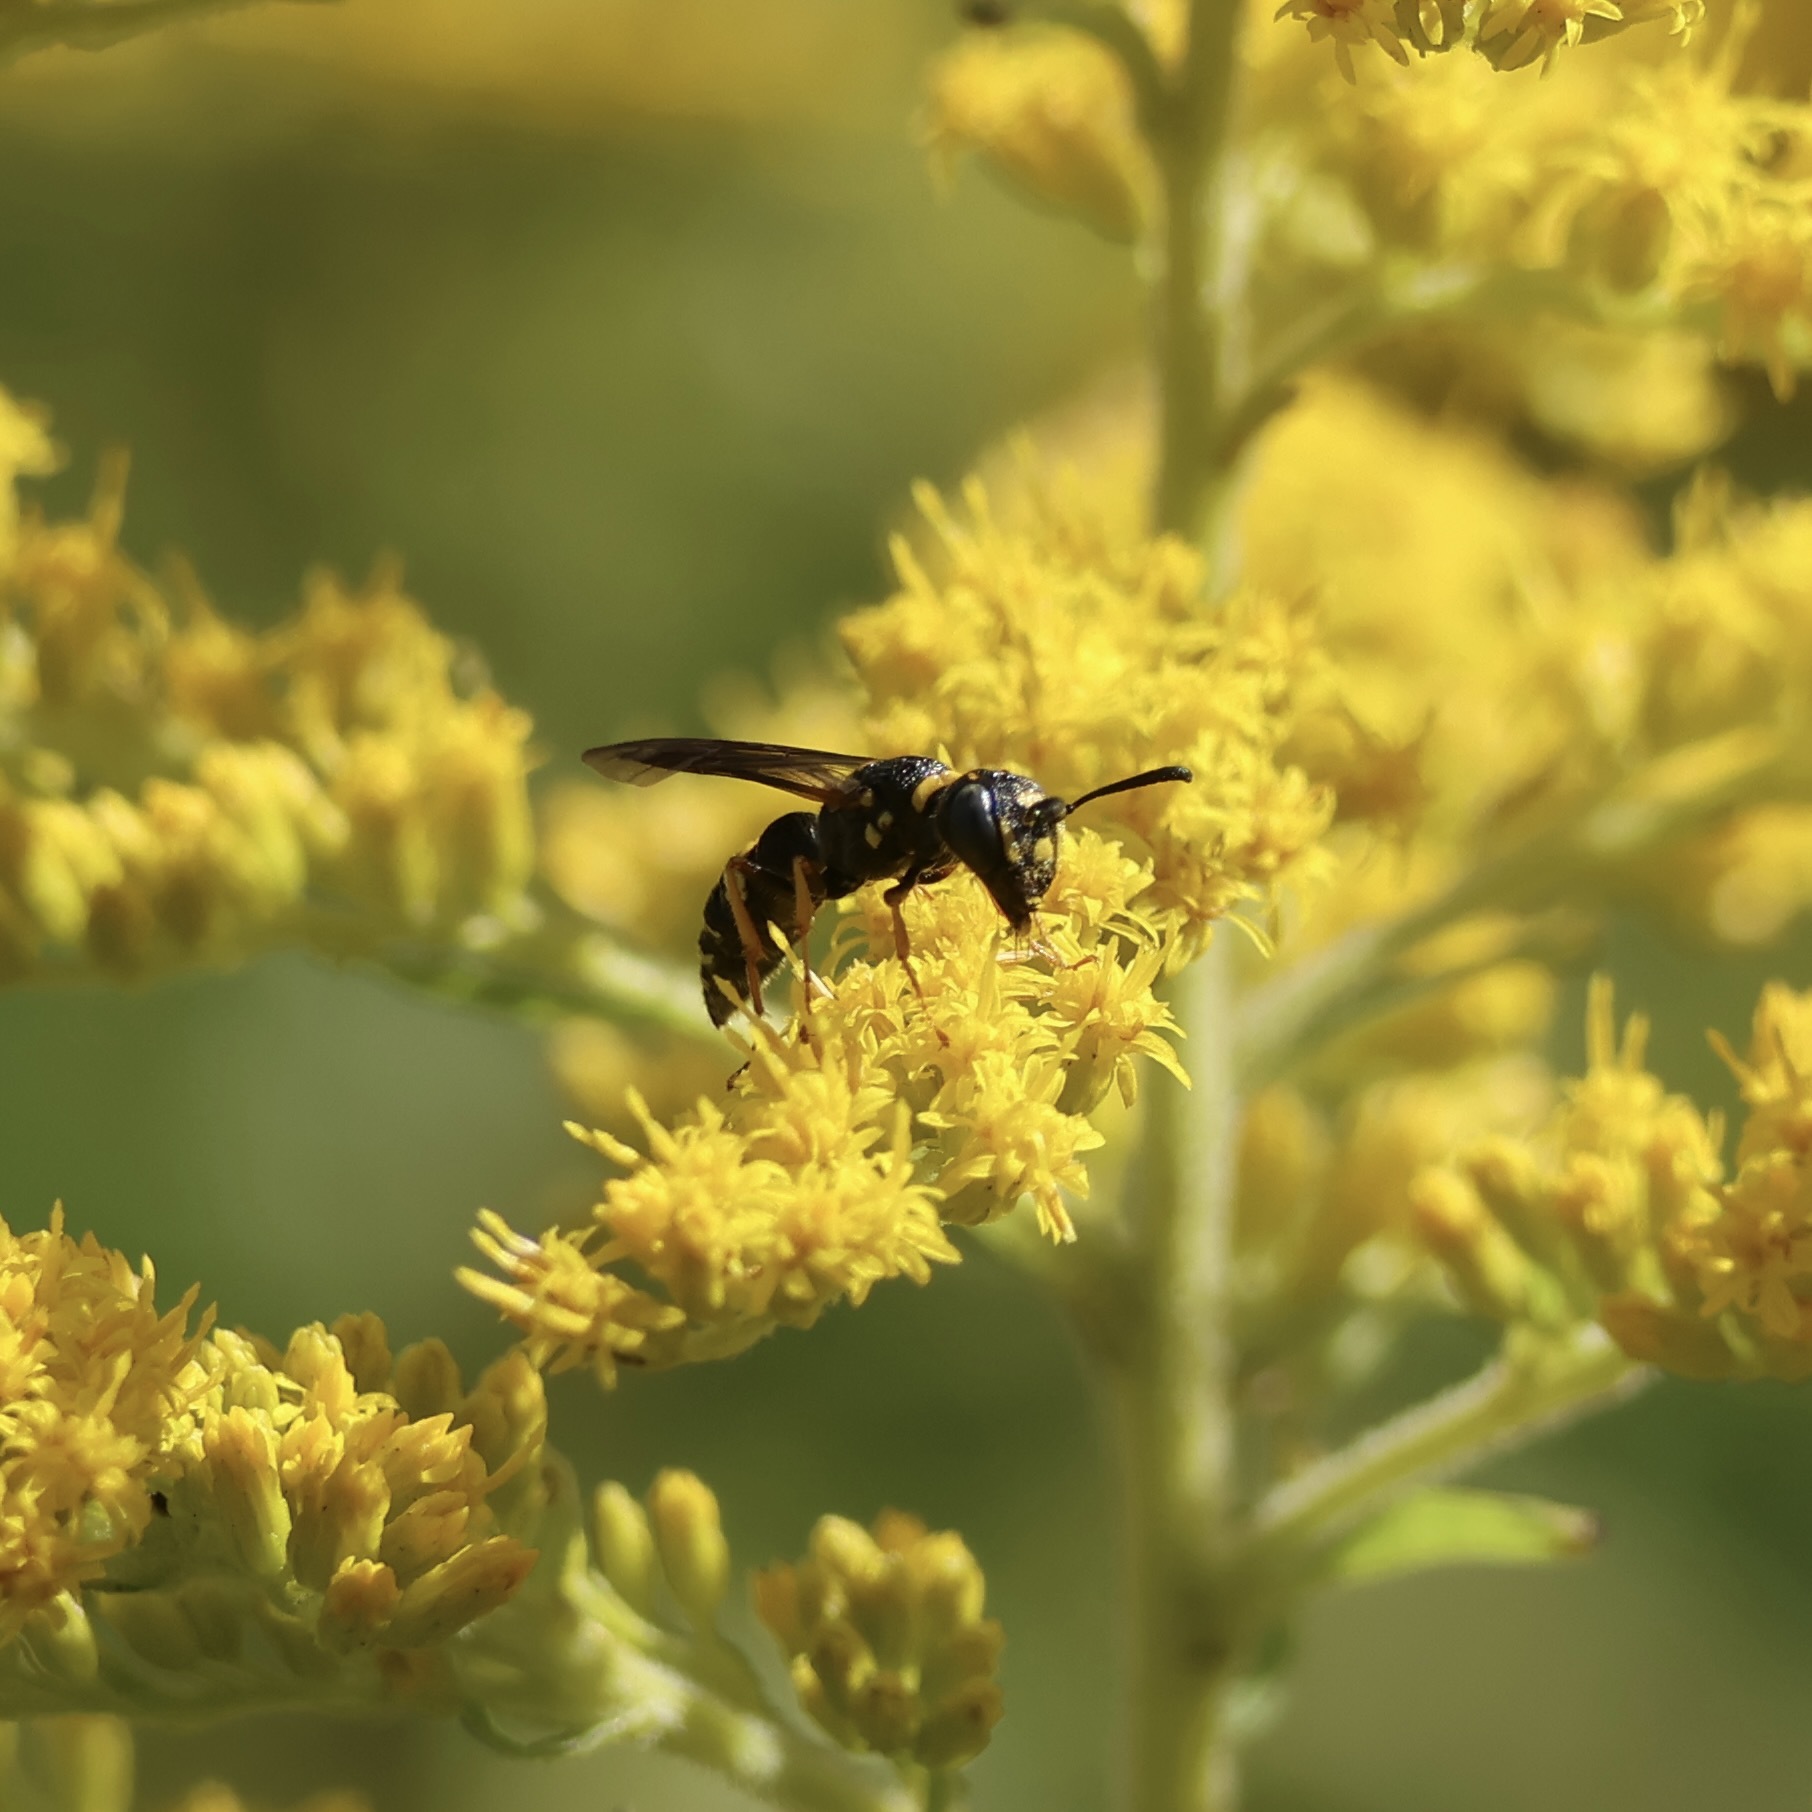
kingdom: Animalia
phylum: Arthropoda
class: Insecta
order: Hymenoptera
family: Crabronidae
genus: Philanthus
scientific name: Philanthus gibbosus
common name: Humped beewolf
